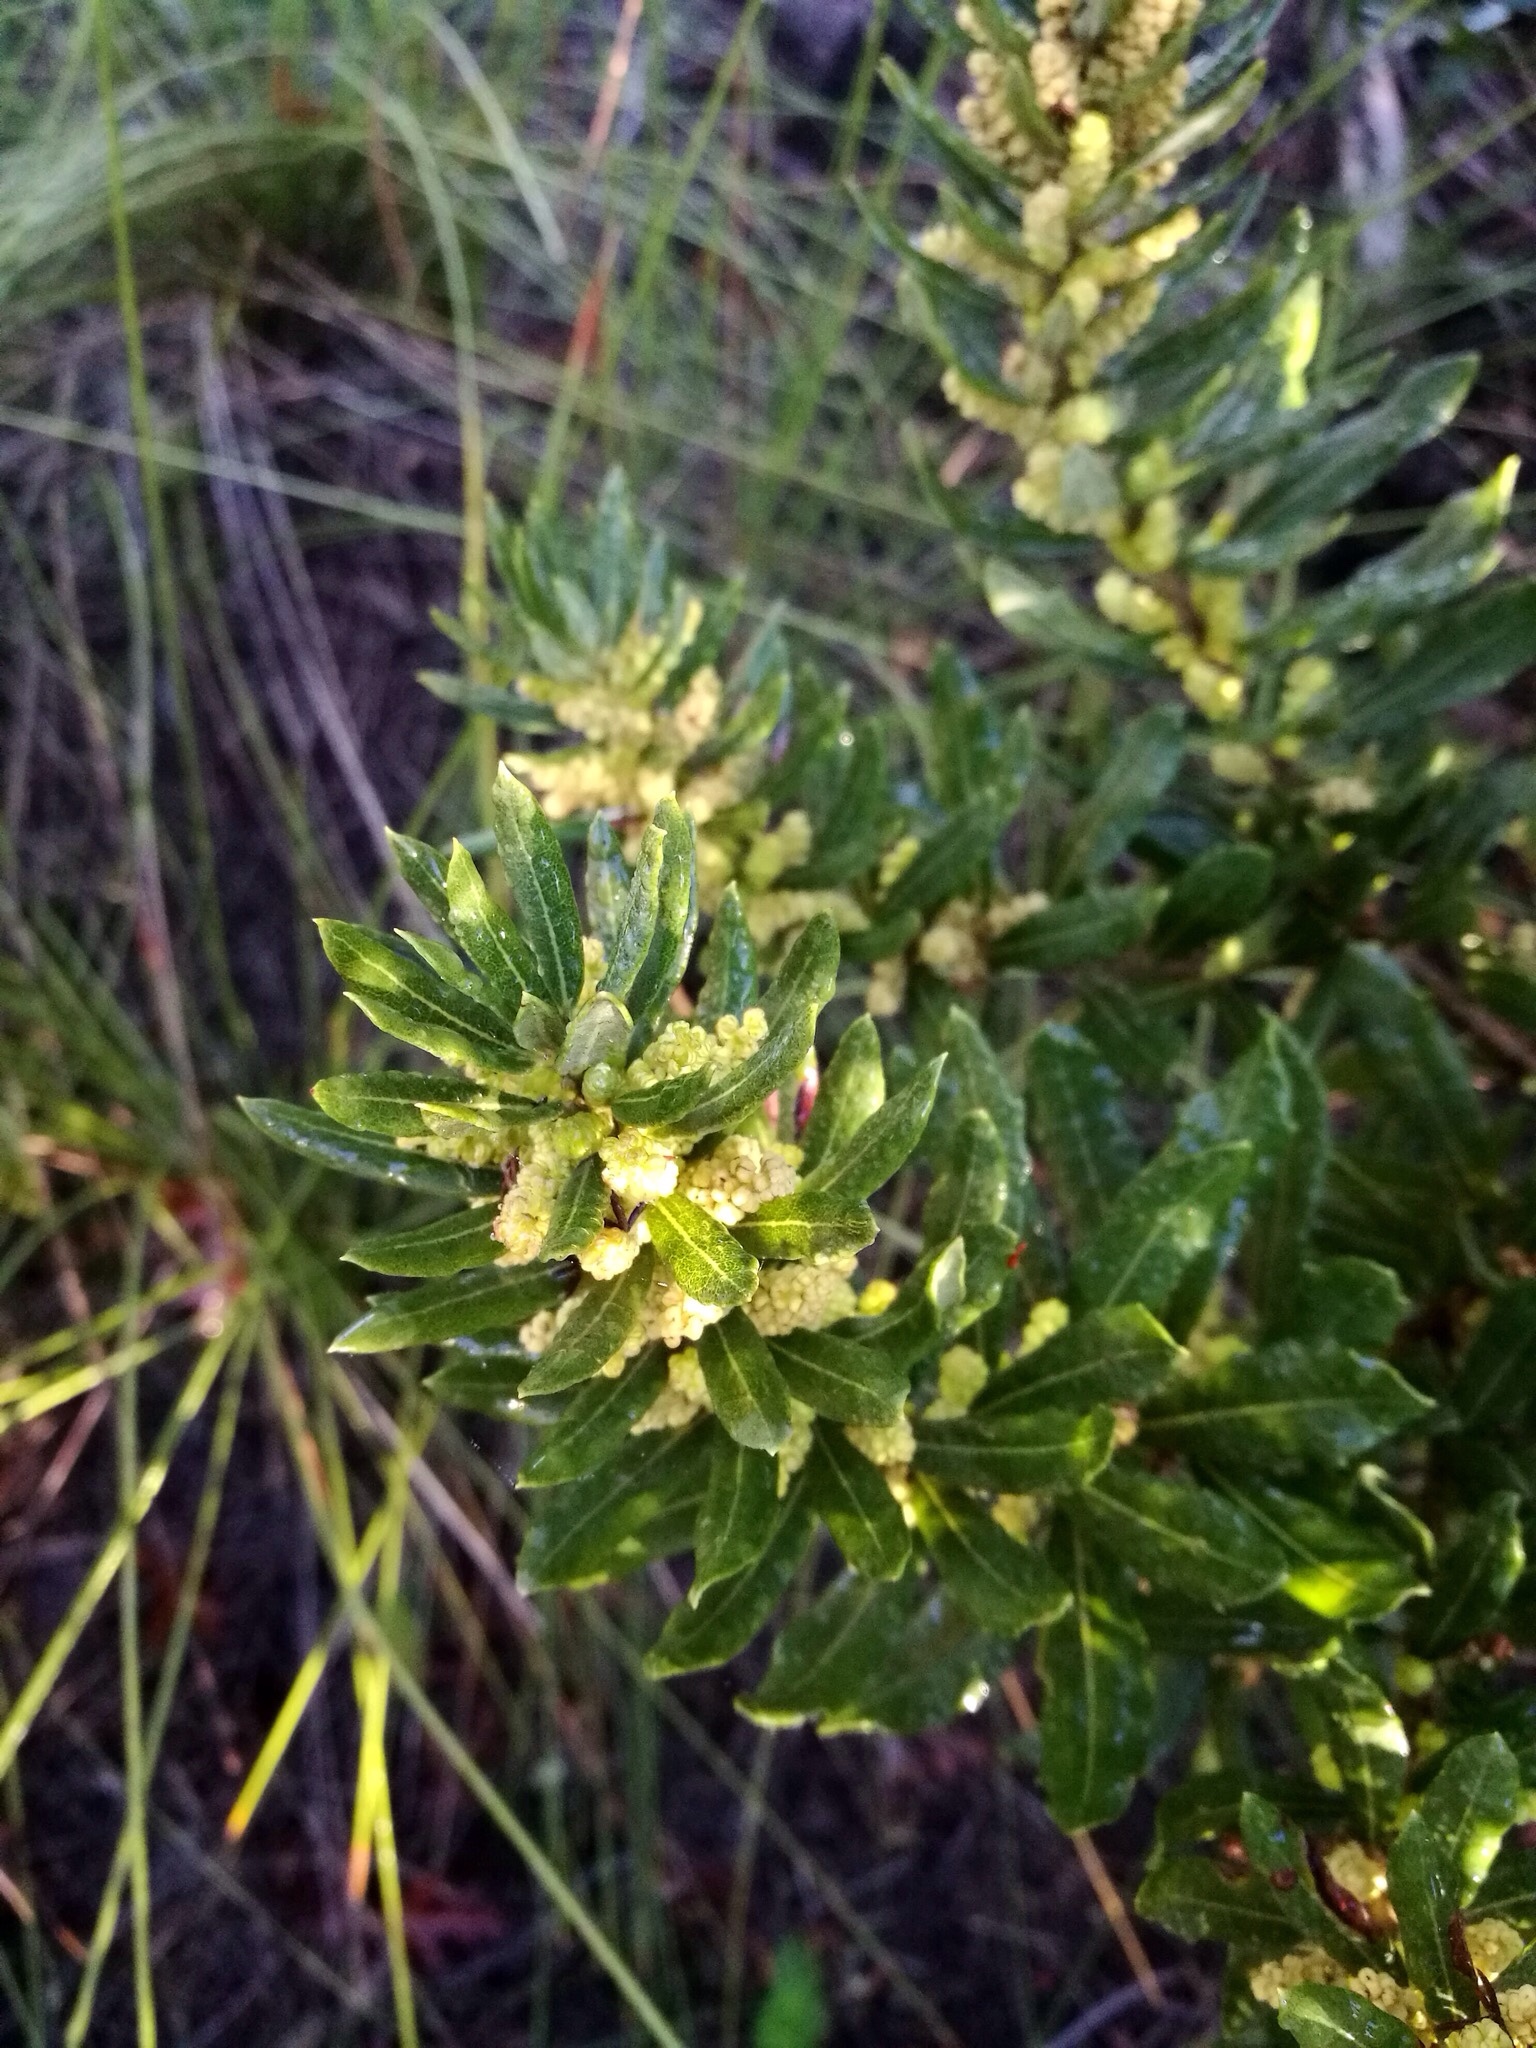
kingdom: Plantae
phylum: Tracheophyta
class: Magnoliopsida
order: Fagales
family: Myricaceae
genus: Morella
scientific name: Morella humilis
